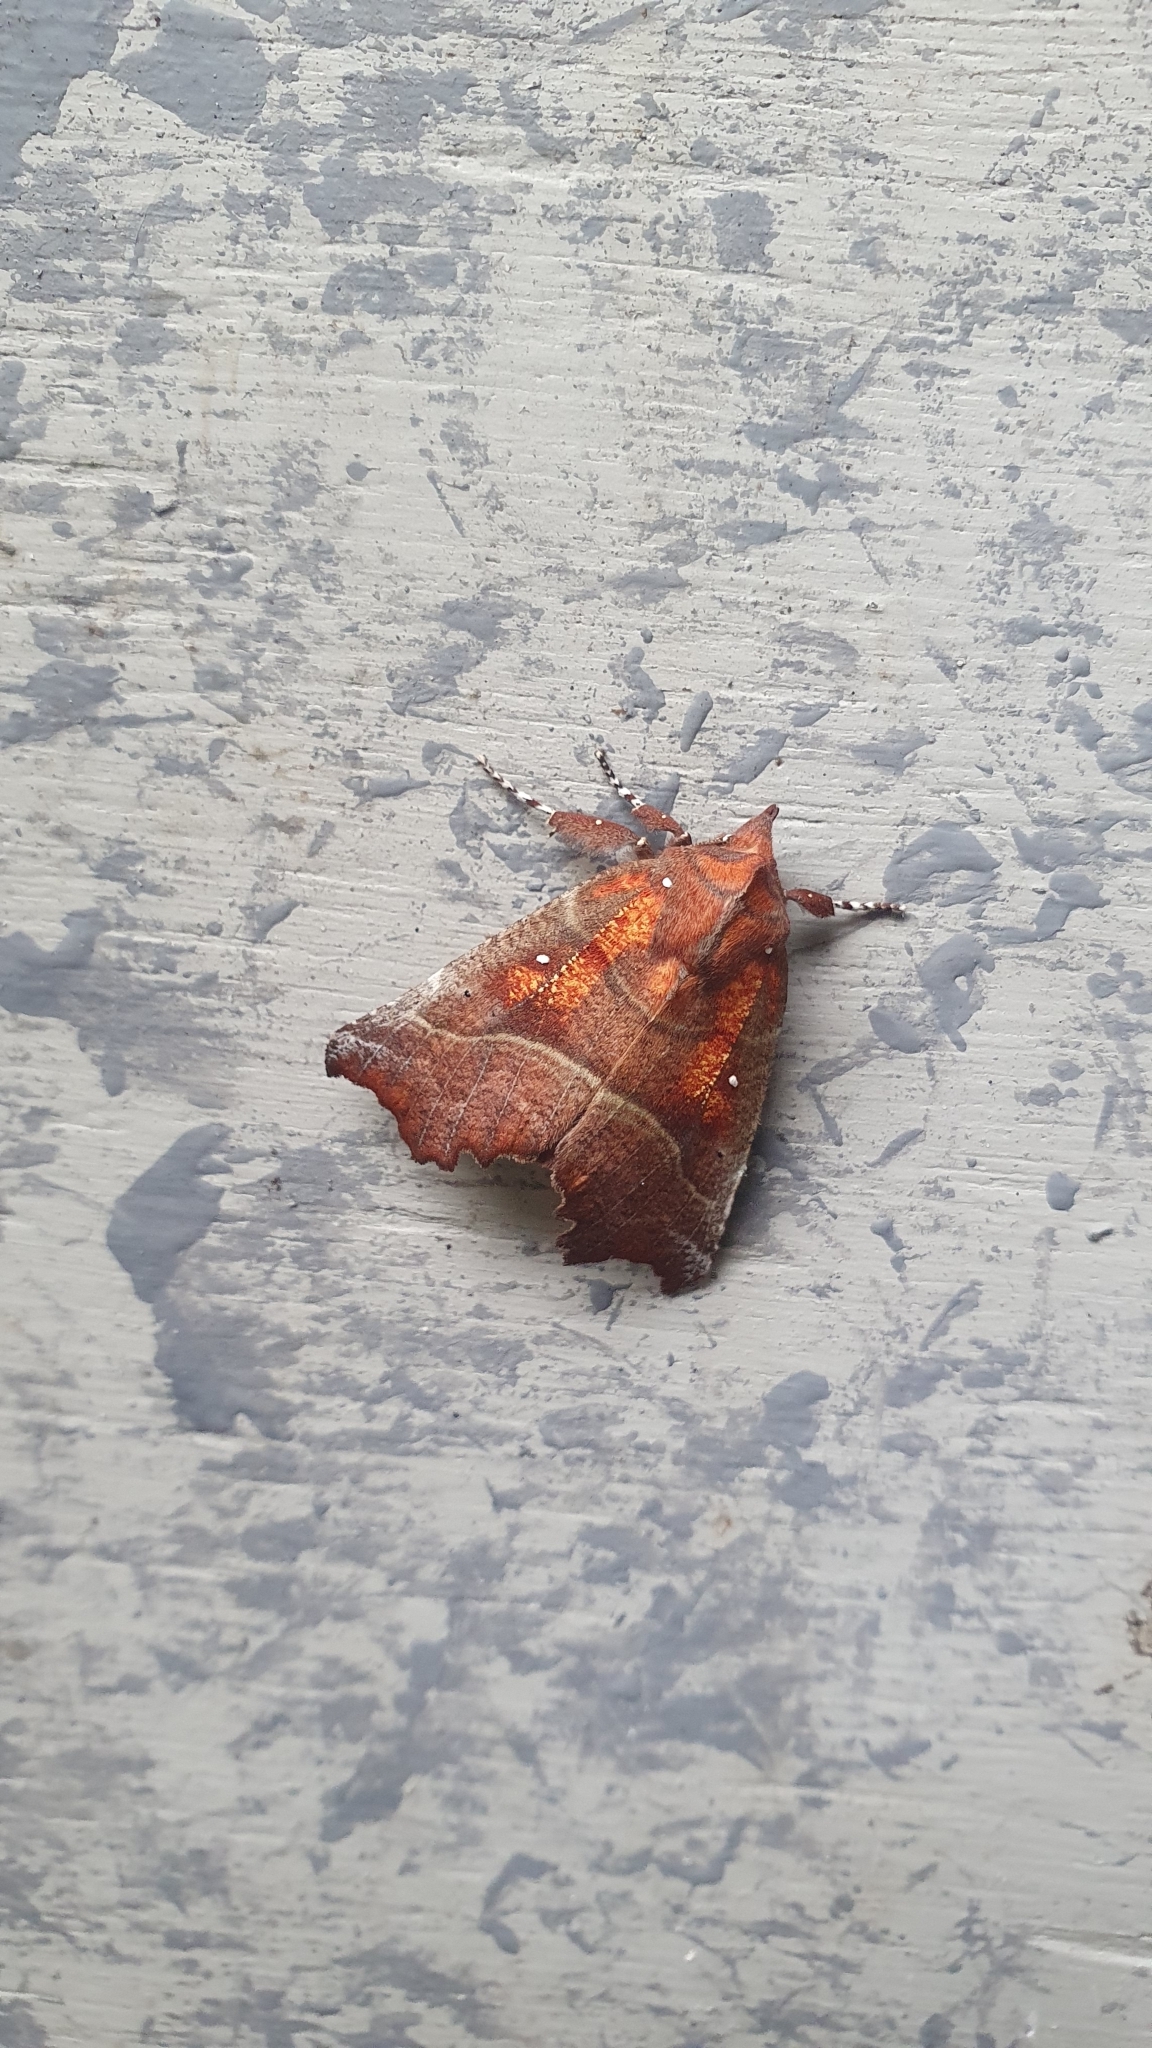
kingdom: Animalia
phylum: Arthropoda
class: Insecta
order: Lepidoptera
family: Erebidae
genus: Scoliopteryx
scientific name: Scoliopteryx libatrix
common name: Herald
